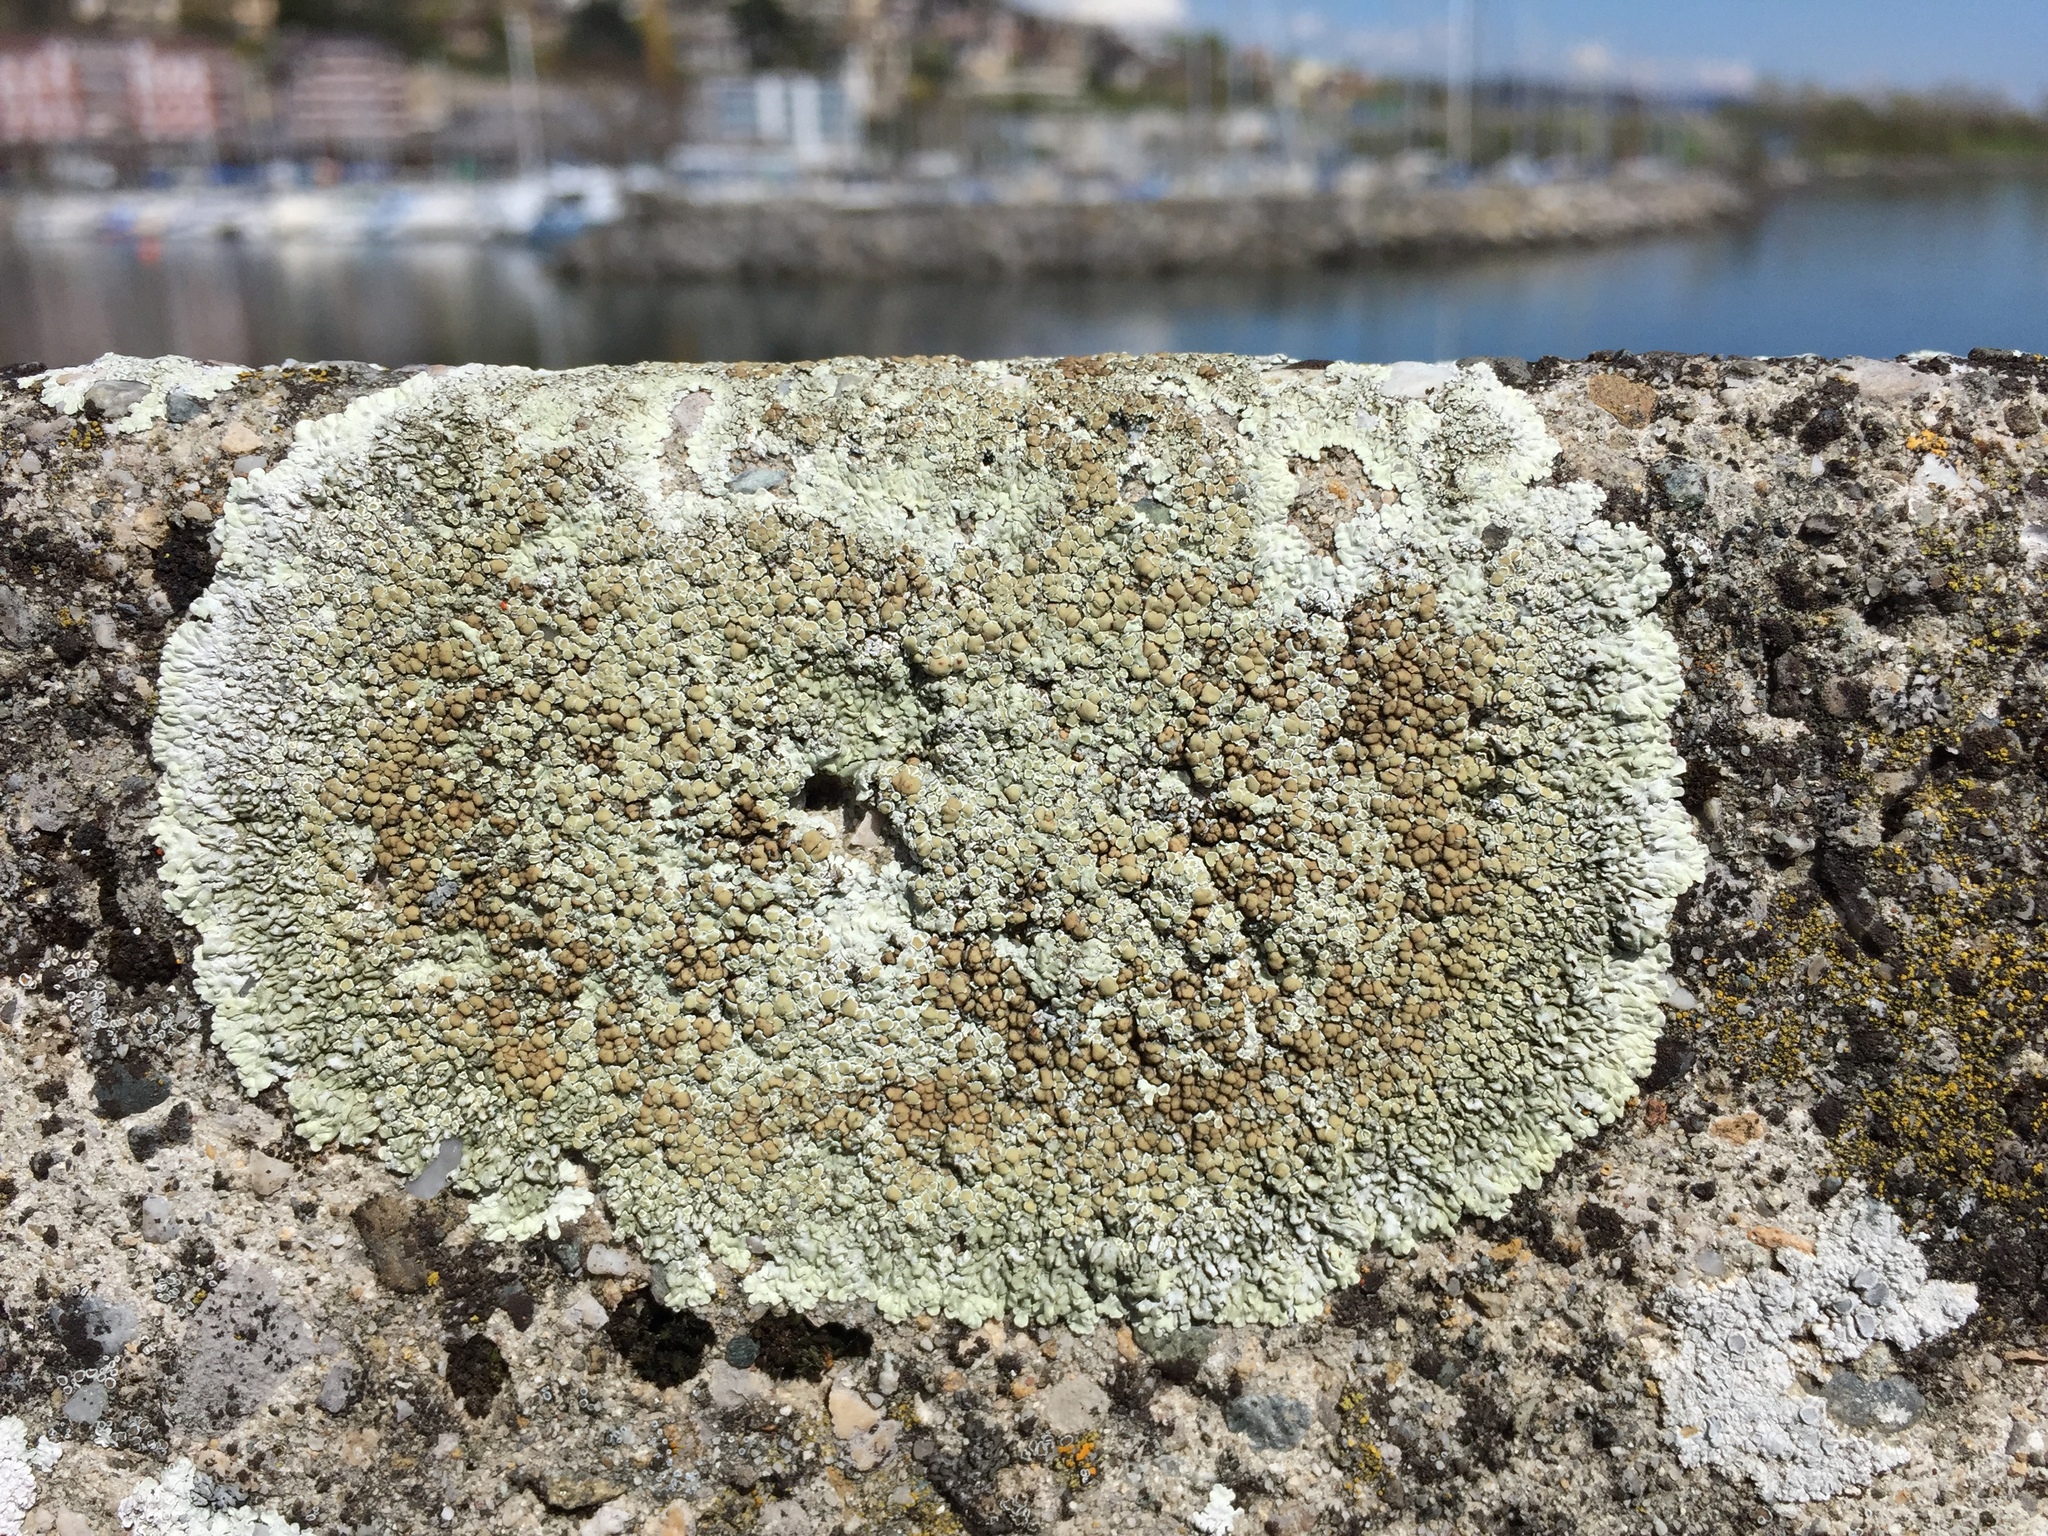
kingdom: Fungi
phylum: Ascomycota
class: Lecanoromycetes
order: Lecanorales
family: Lecanoraceae
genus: Protoparmeliopsis
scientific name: Protoparmeliopsis muralis
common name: Stonewall rim lichen
